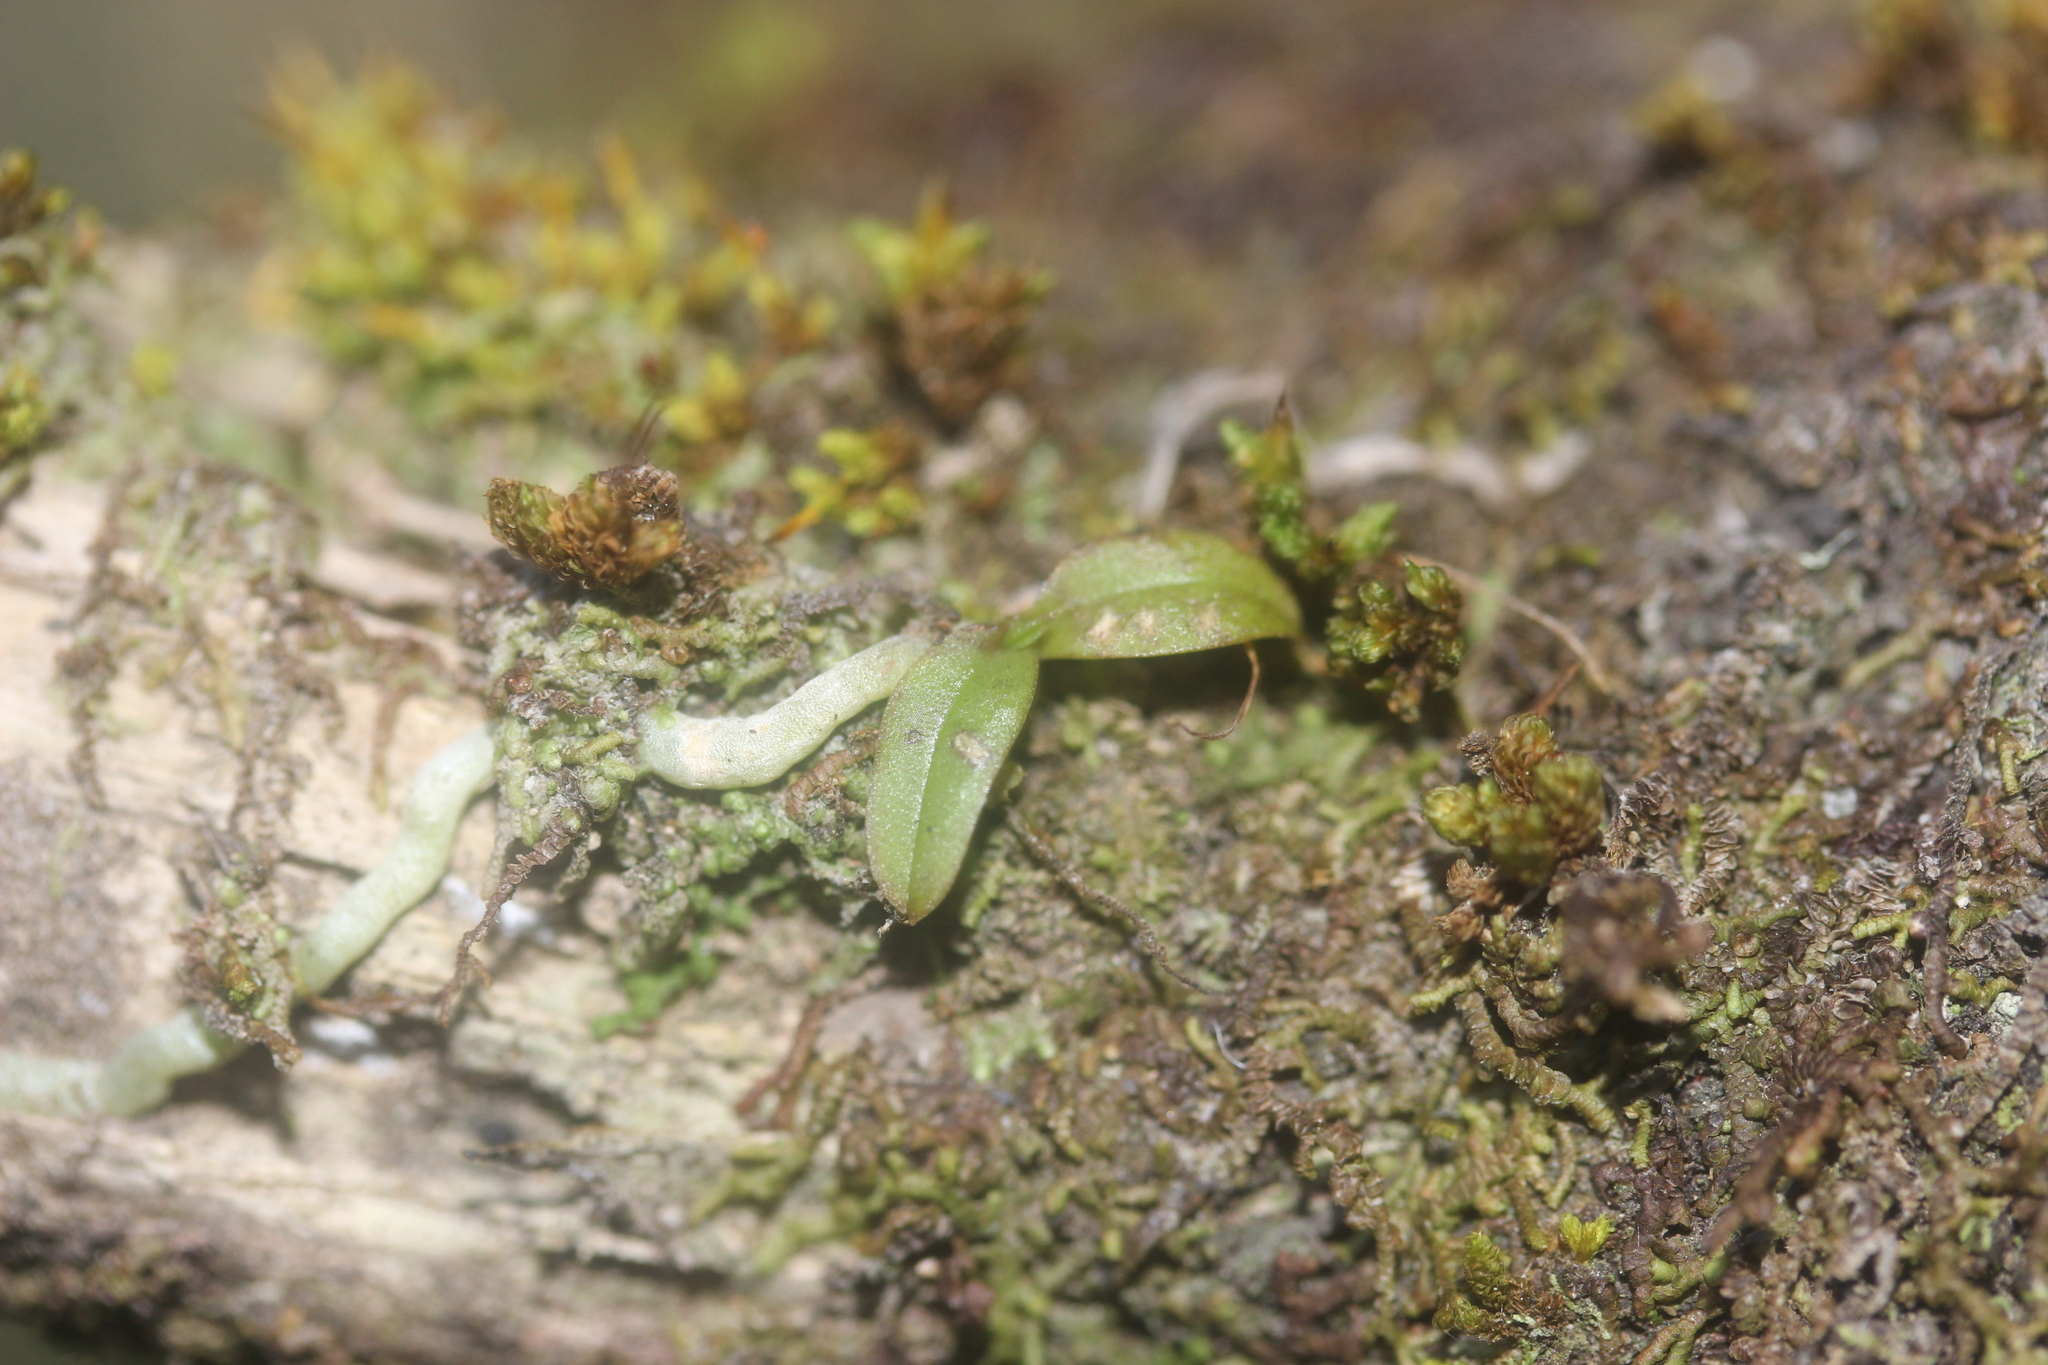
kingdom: Plantae
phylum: Tracheophyta
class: Liliopsida
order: Asparagales
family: Orchidaceae
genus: Drymoanthus
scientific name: Drymoanthus adversus
